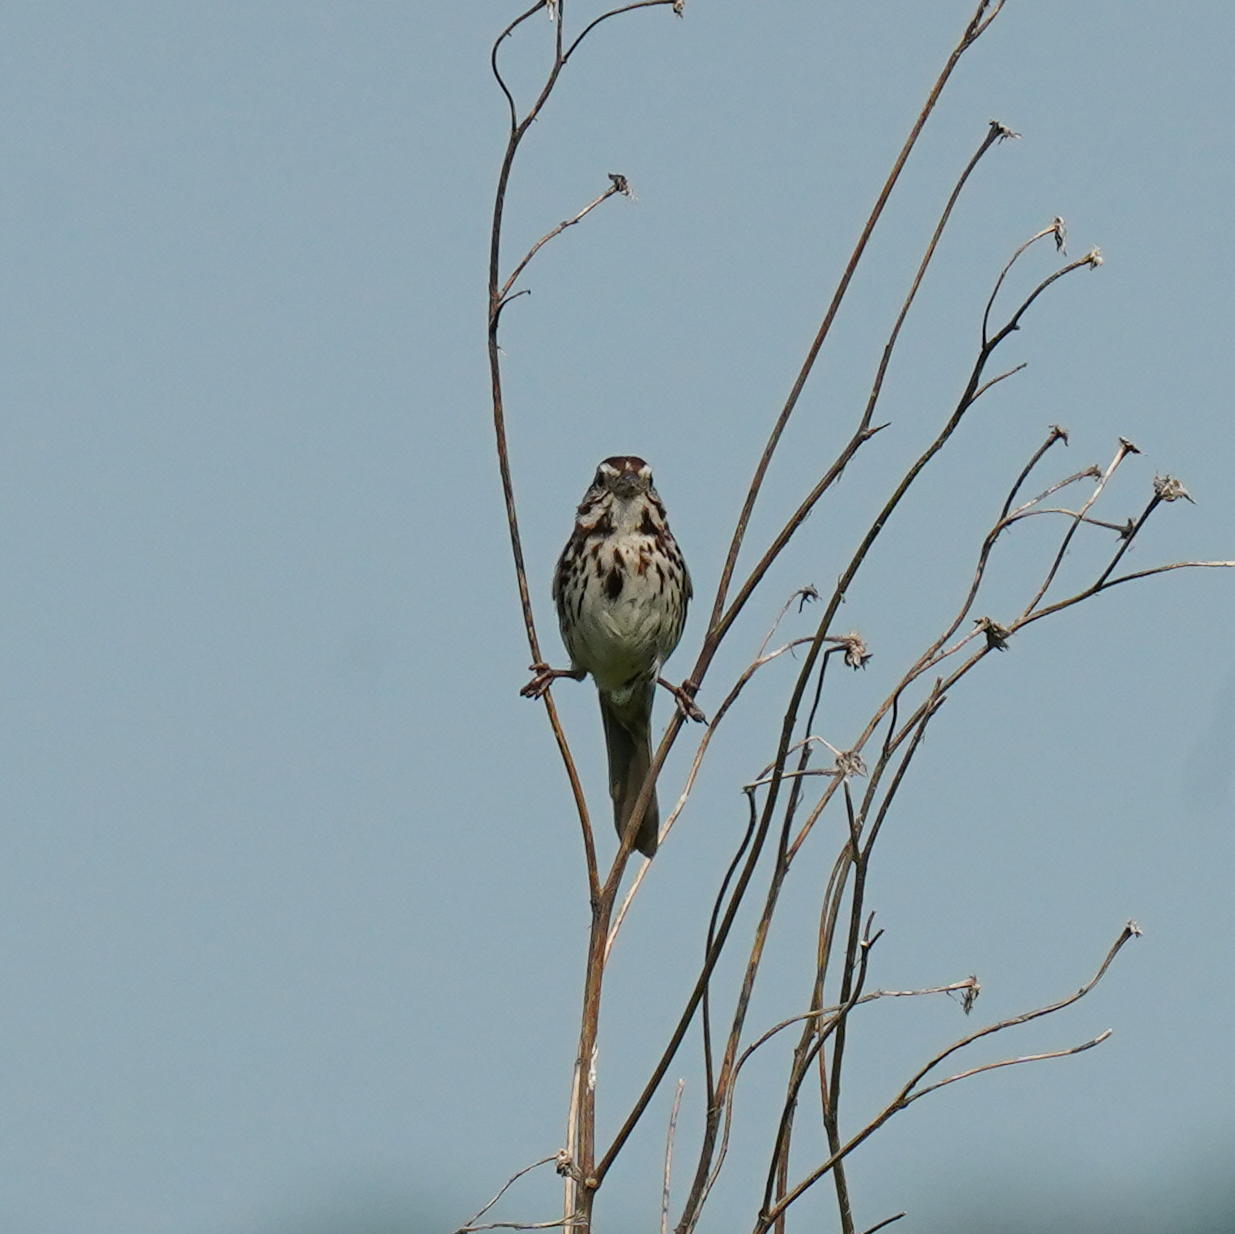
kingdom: Animalia
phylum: Chordata
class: Aves
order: Passeriformes
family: Passerellidae
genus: Melospiza
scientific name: Melospiza melodia
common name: Song sparrow
